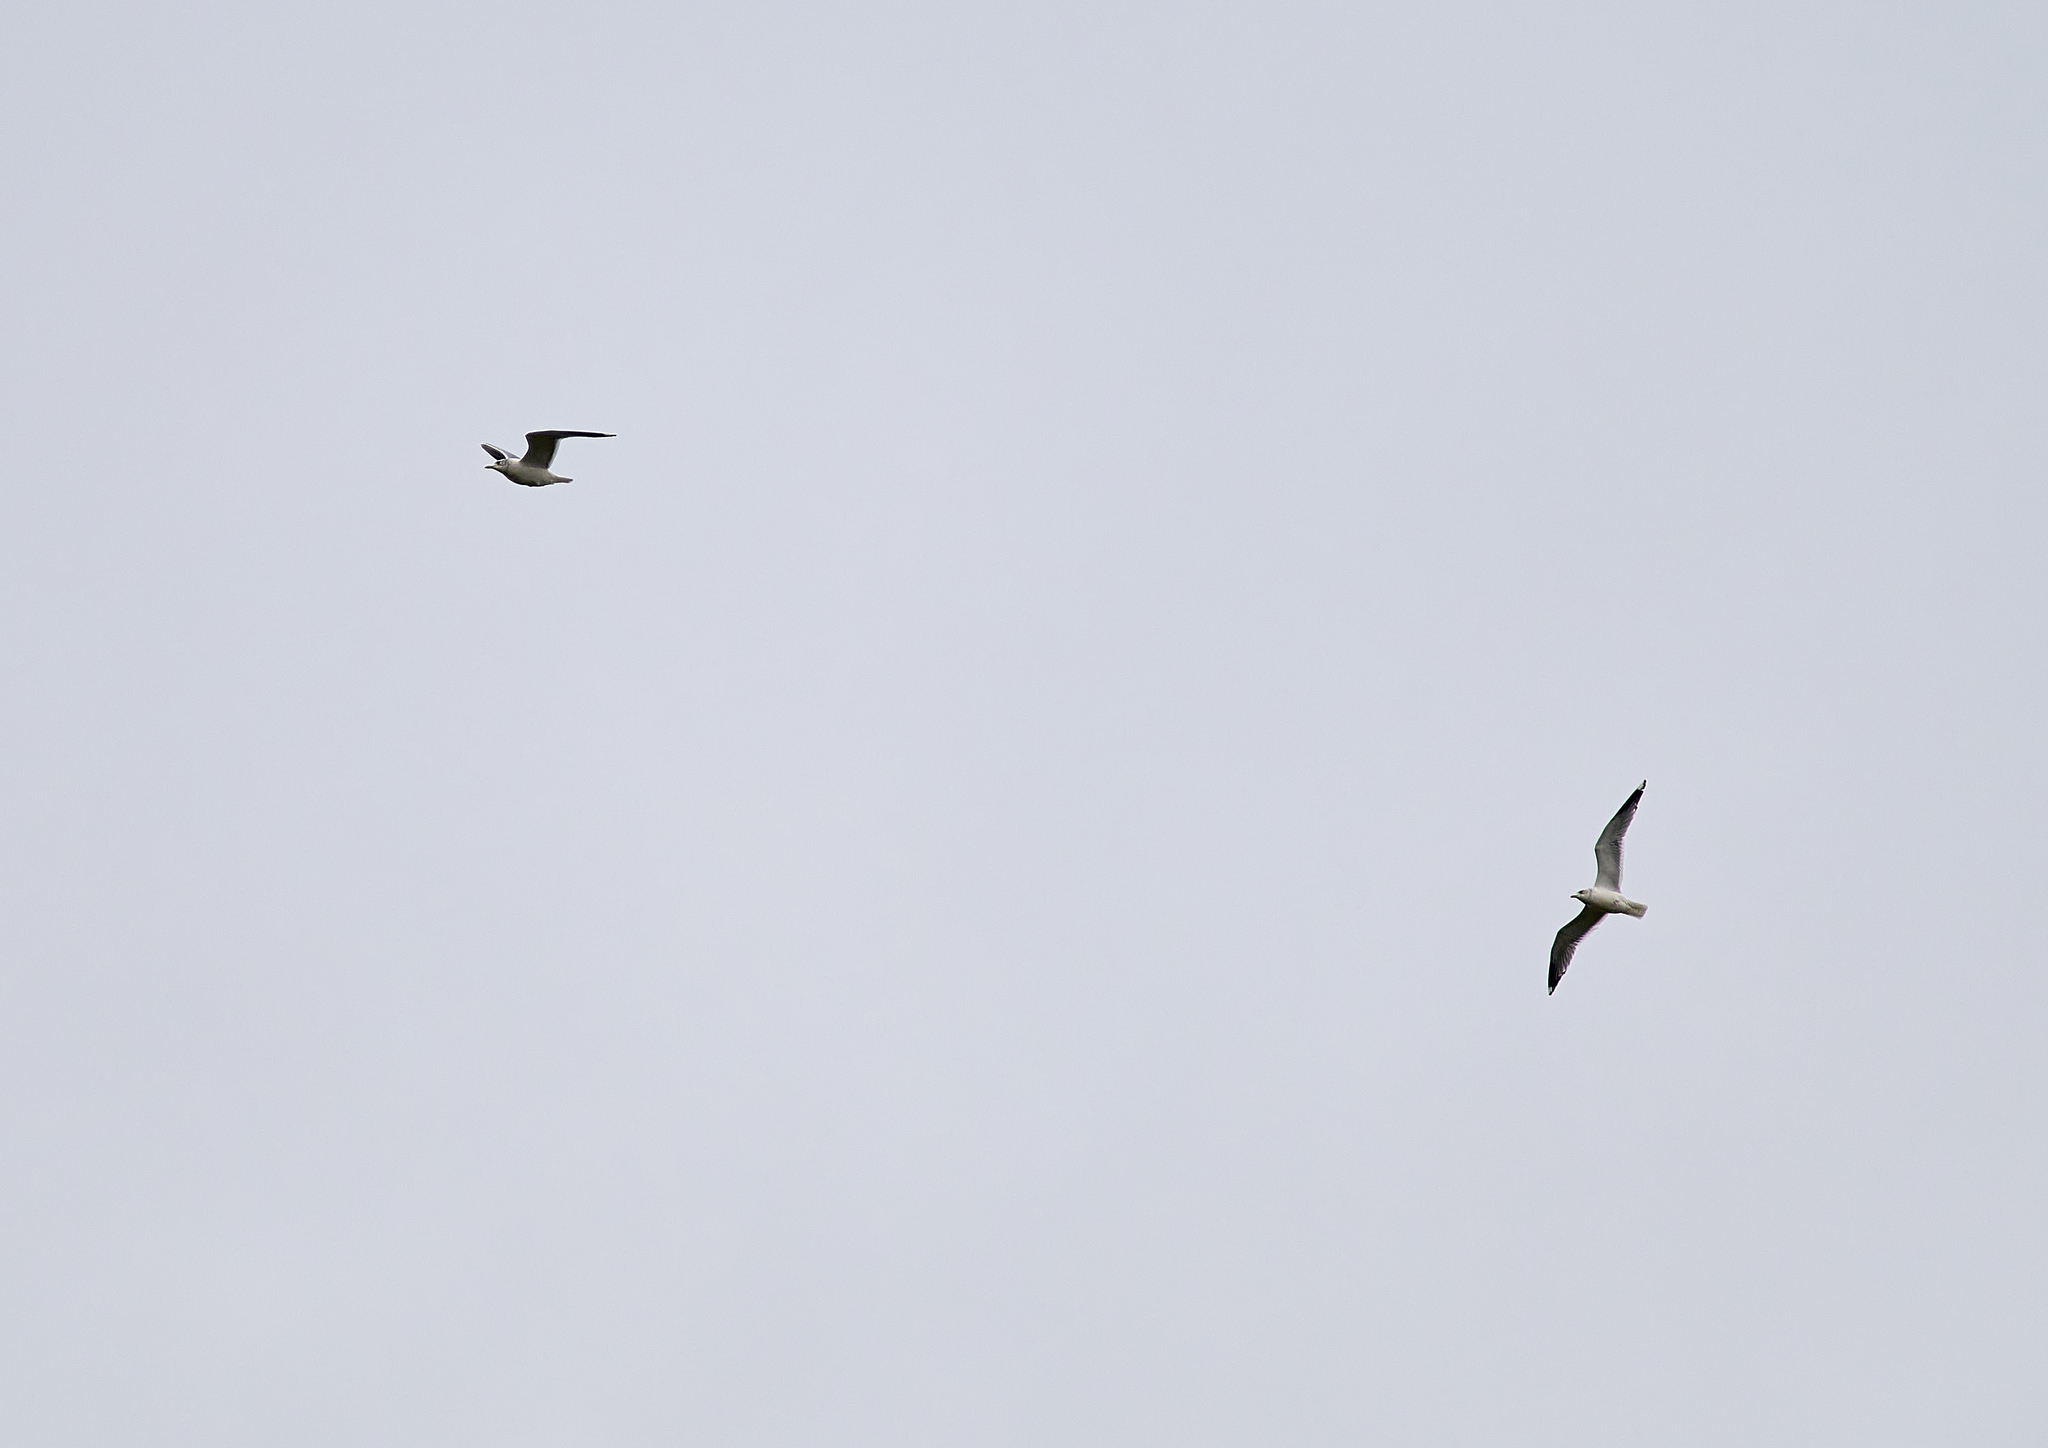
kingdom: Animalia
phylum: Chordata
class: Aves
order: Charadriiformes
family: Laridae
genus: Larus
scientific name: Larus canus
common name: Mew gull
